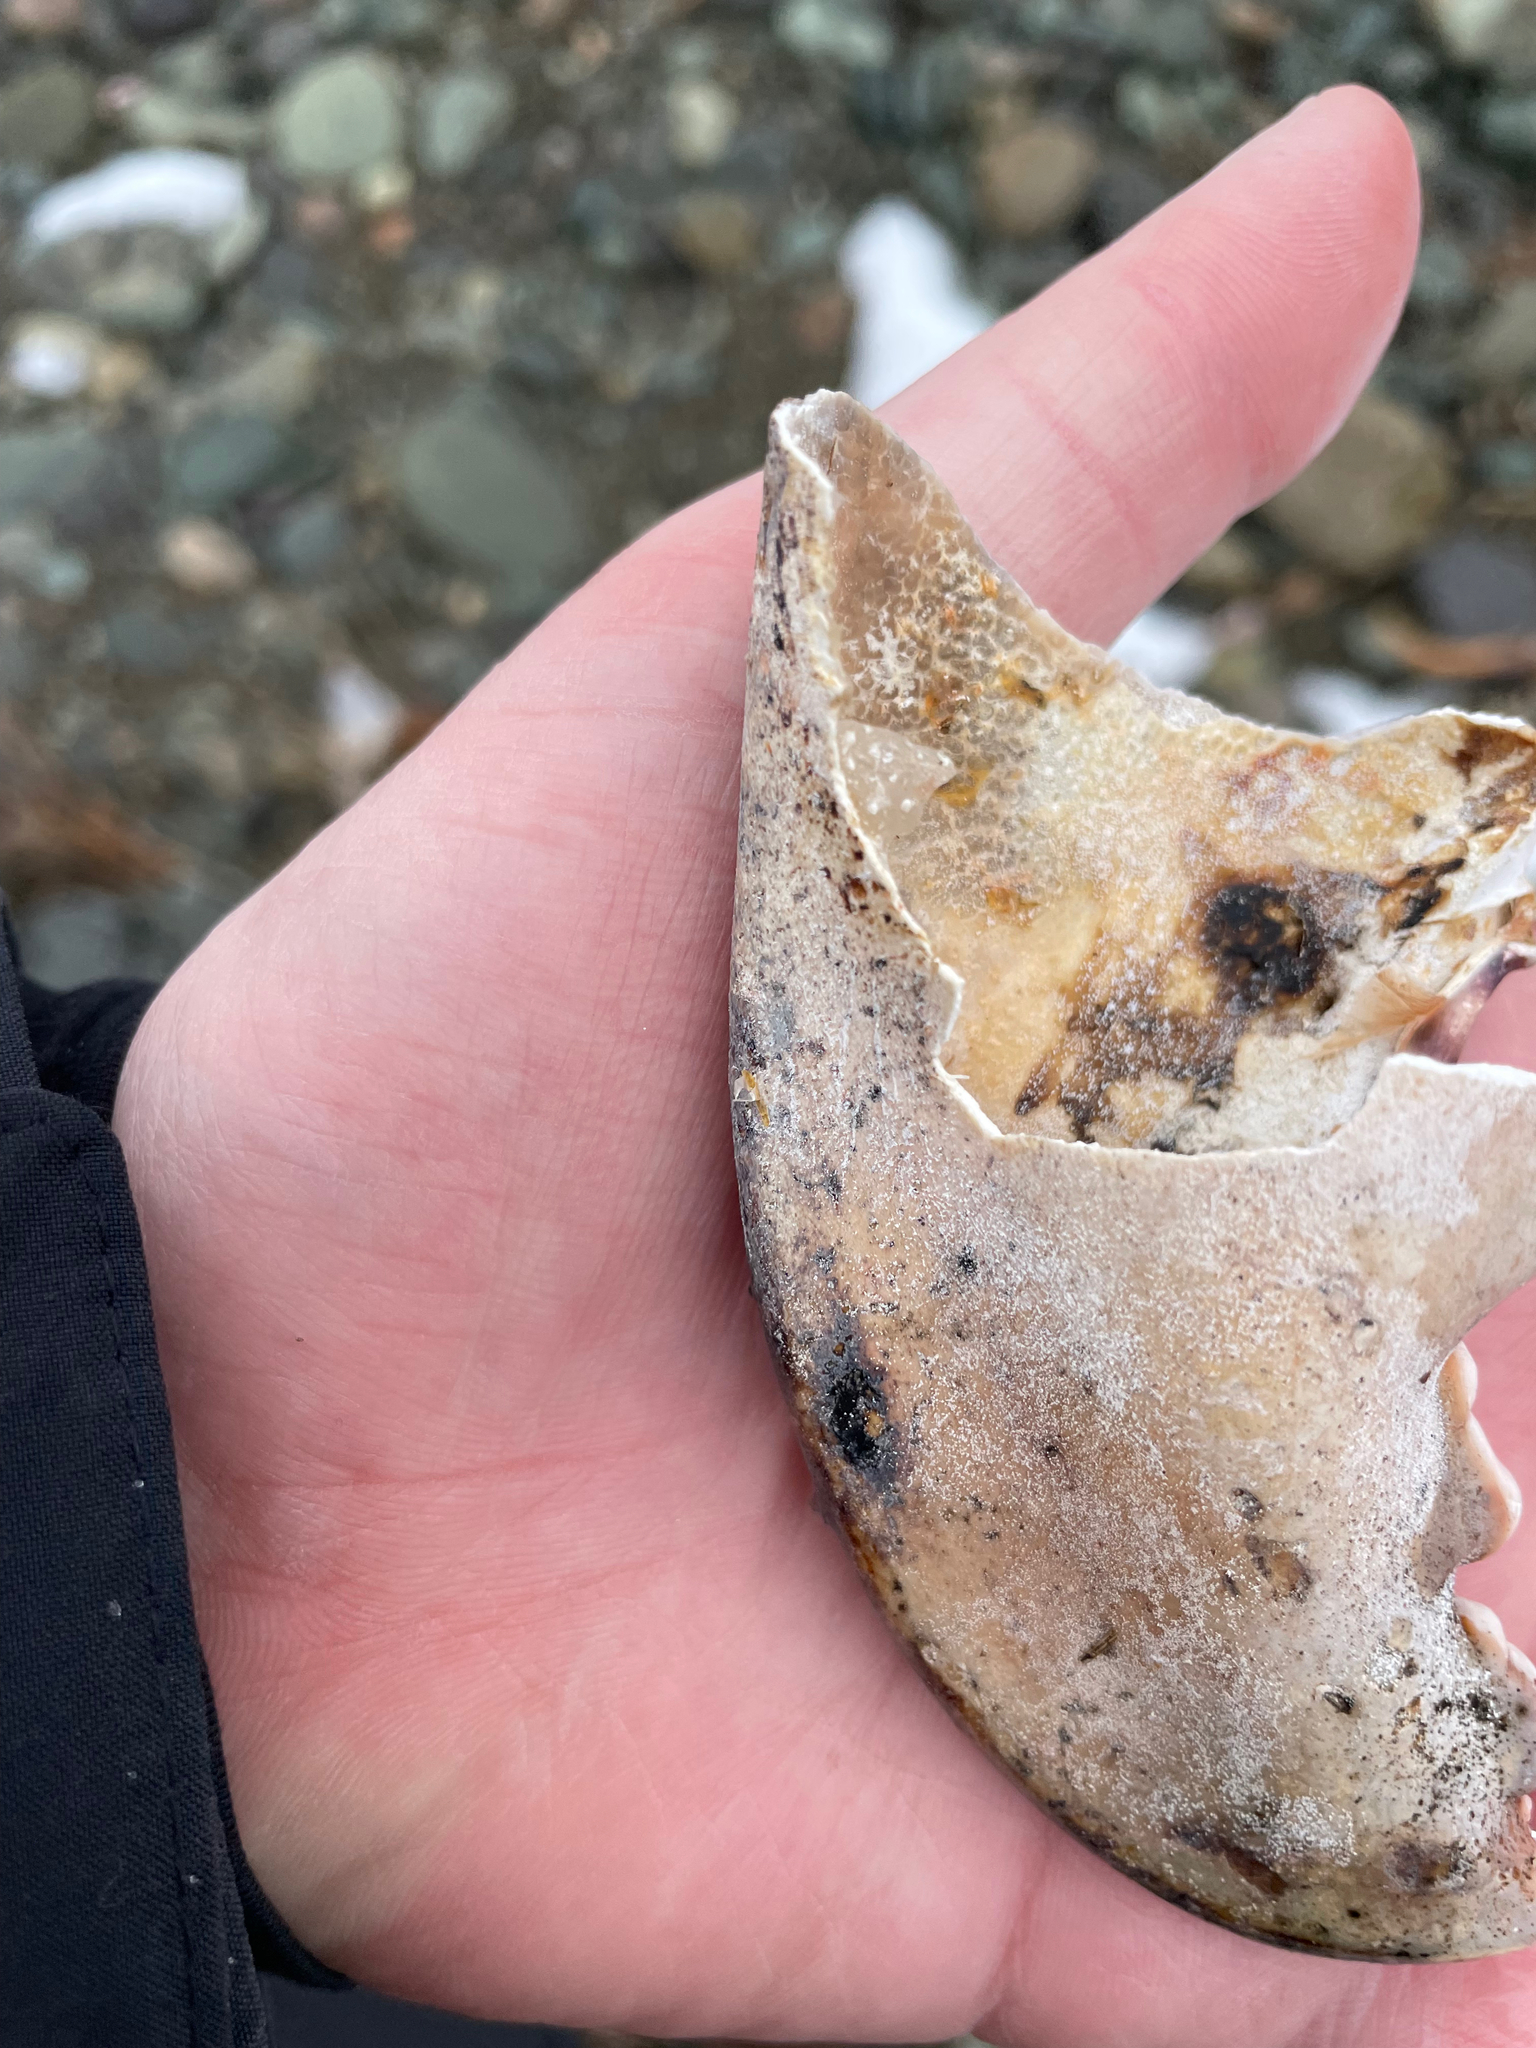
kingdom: Animalia
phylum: Arthropoda
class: Malacostraca
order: Decapoda
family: Nephropidae
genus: Homarus
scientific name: Homarus americanus
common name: American lobster
